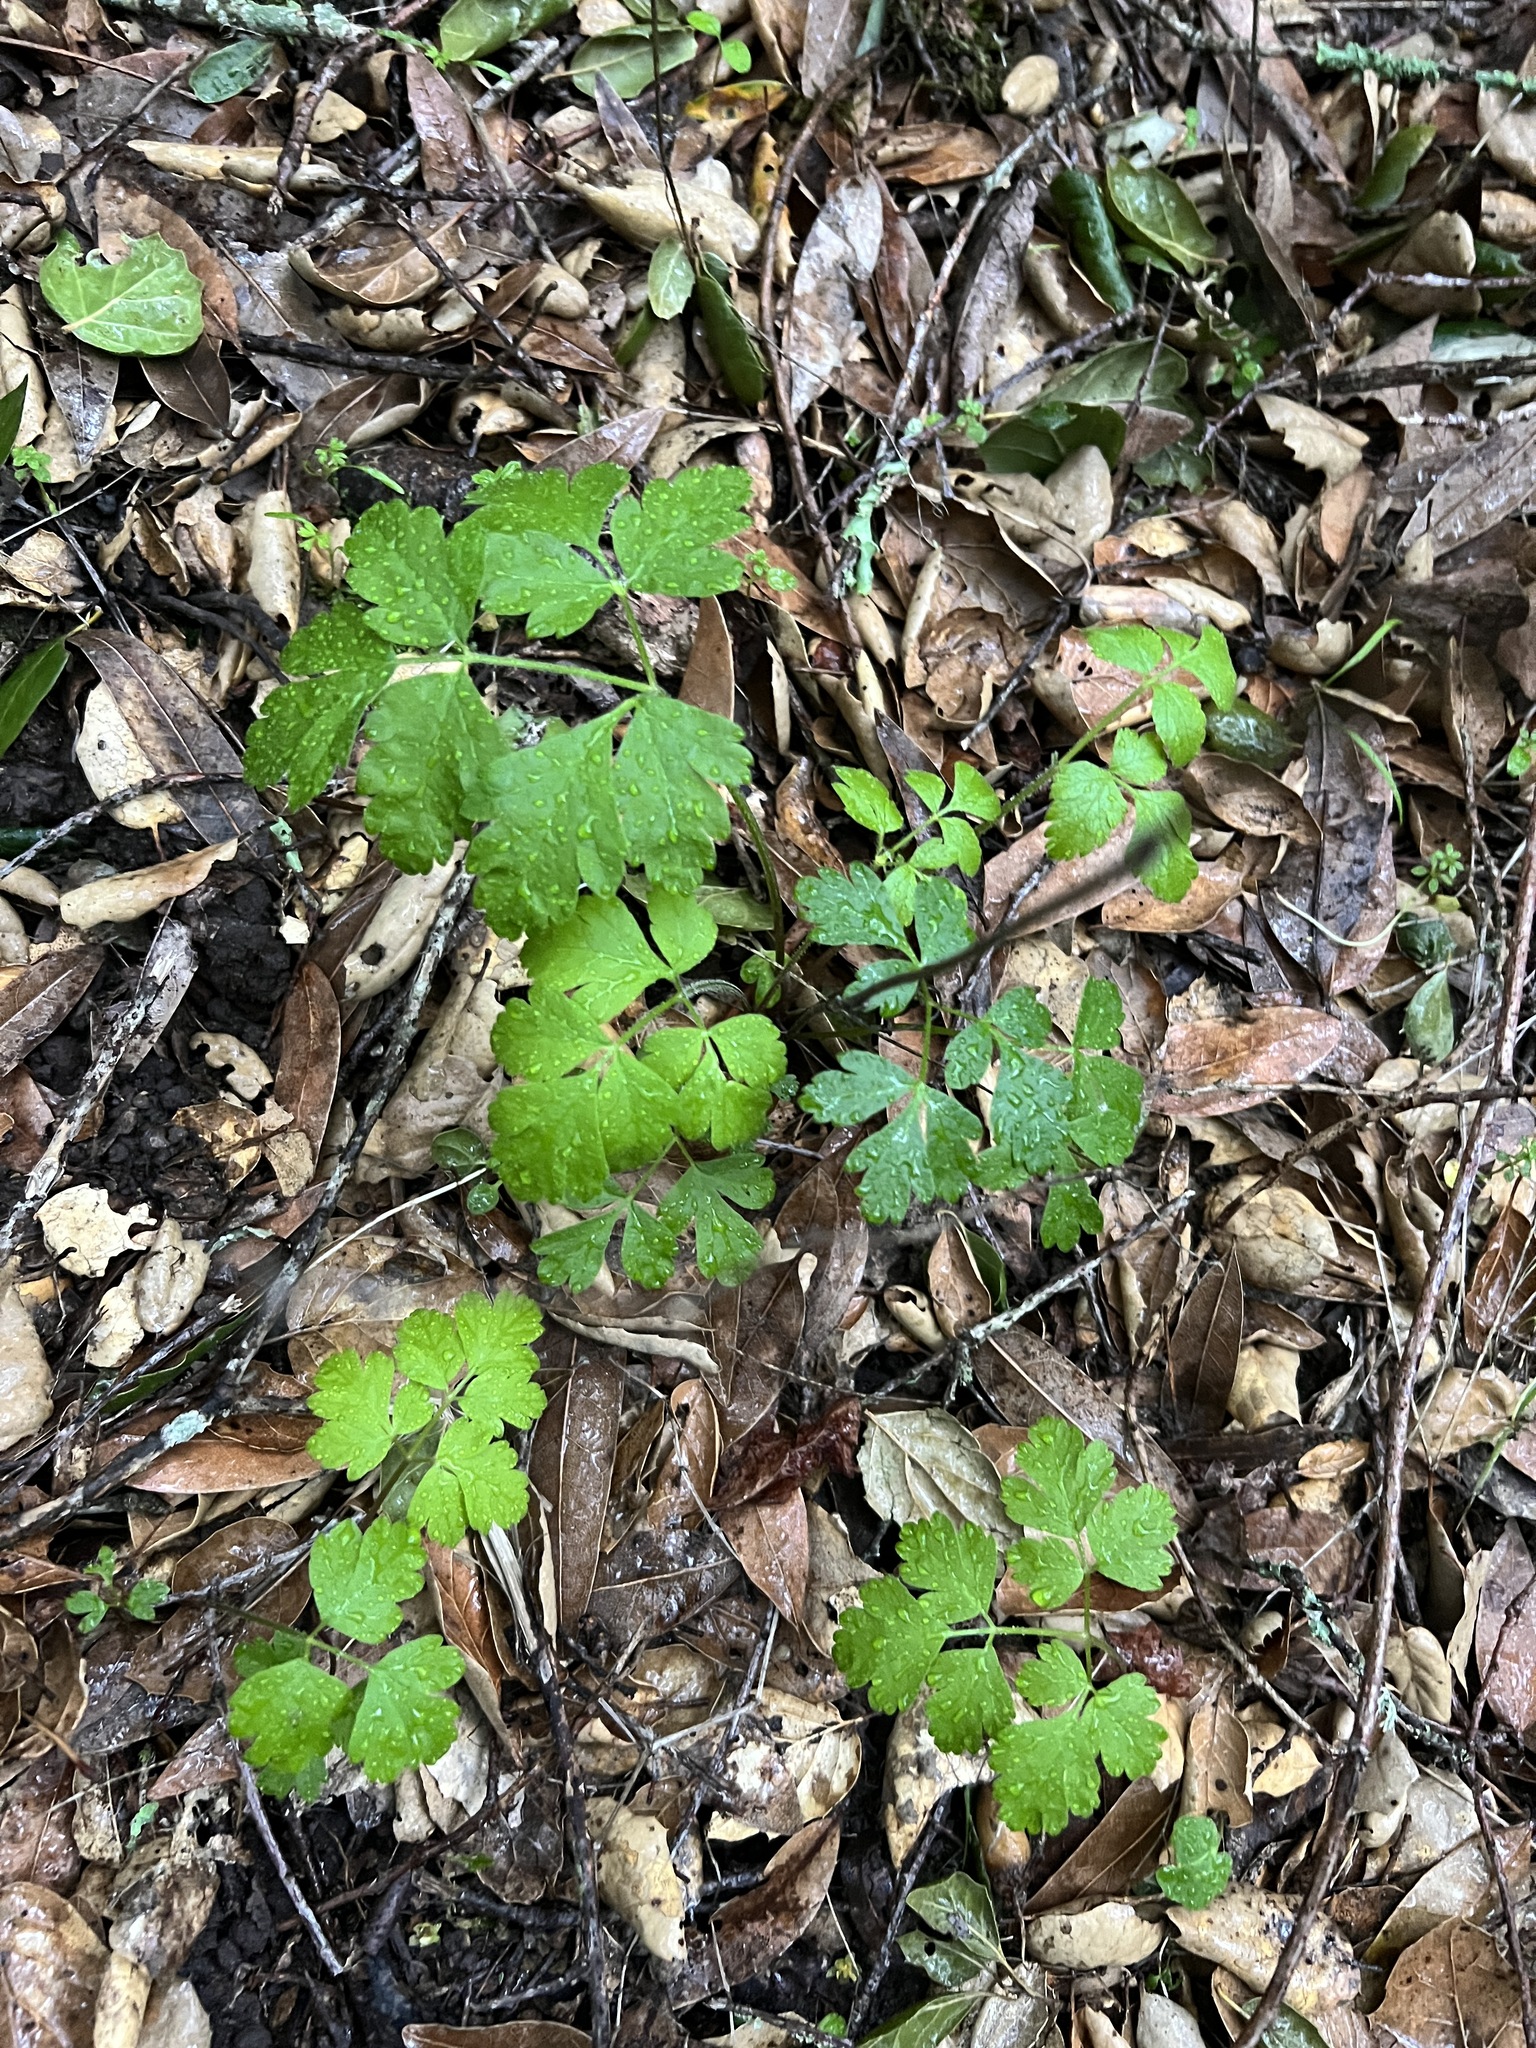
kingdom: Plantae
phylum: Tracheophyta
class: Magnoliopsida
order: Apiales
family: Apiaceae
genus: Osmorhiza
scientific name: Osmorhiza berteroi
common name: Mountain sweet cicely
